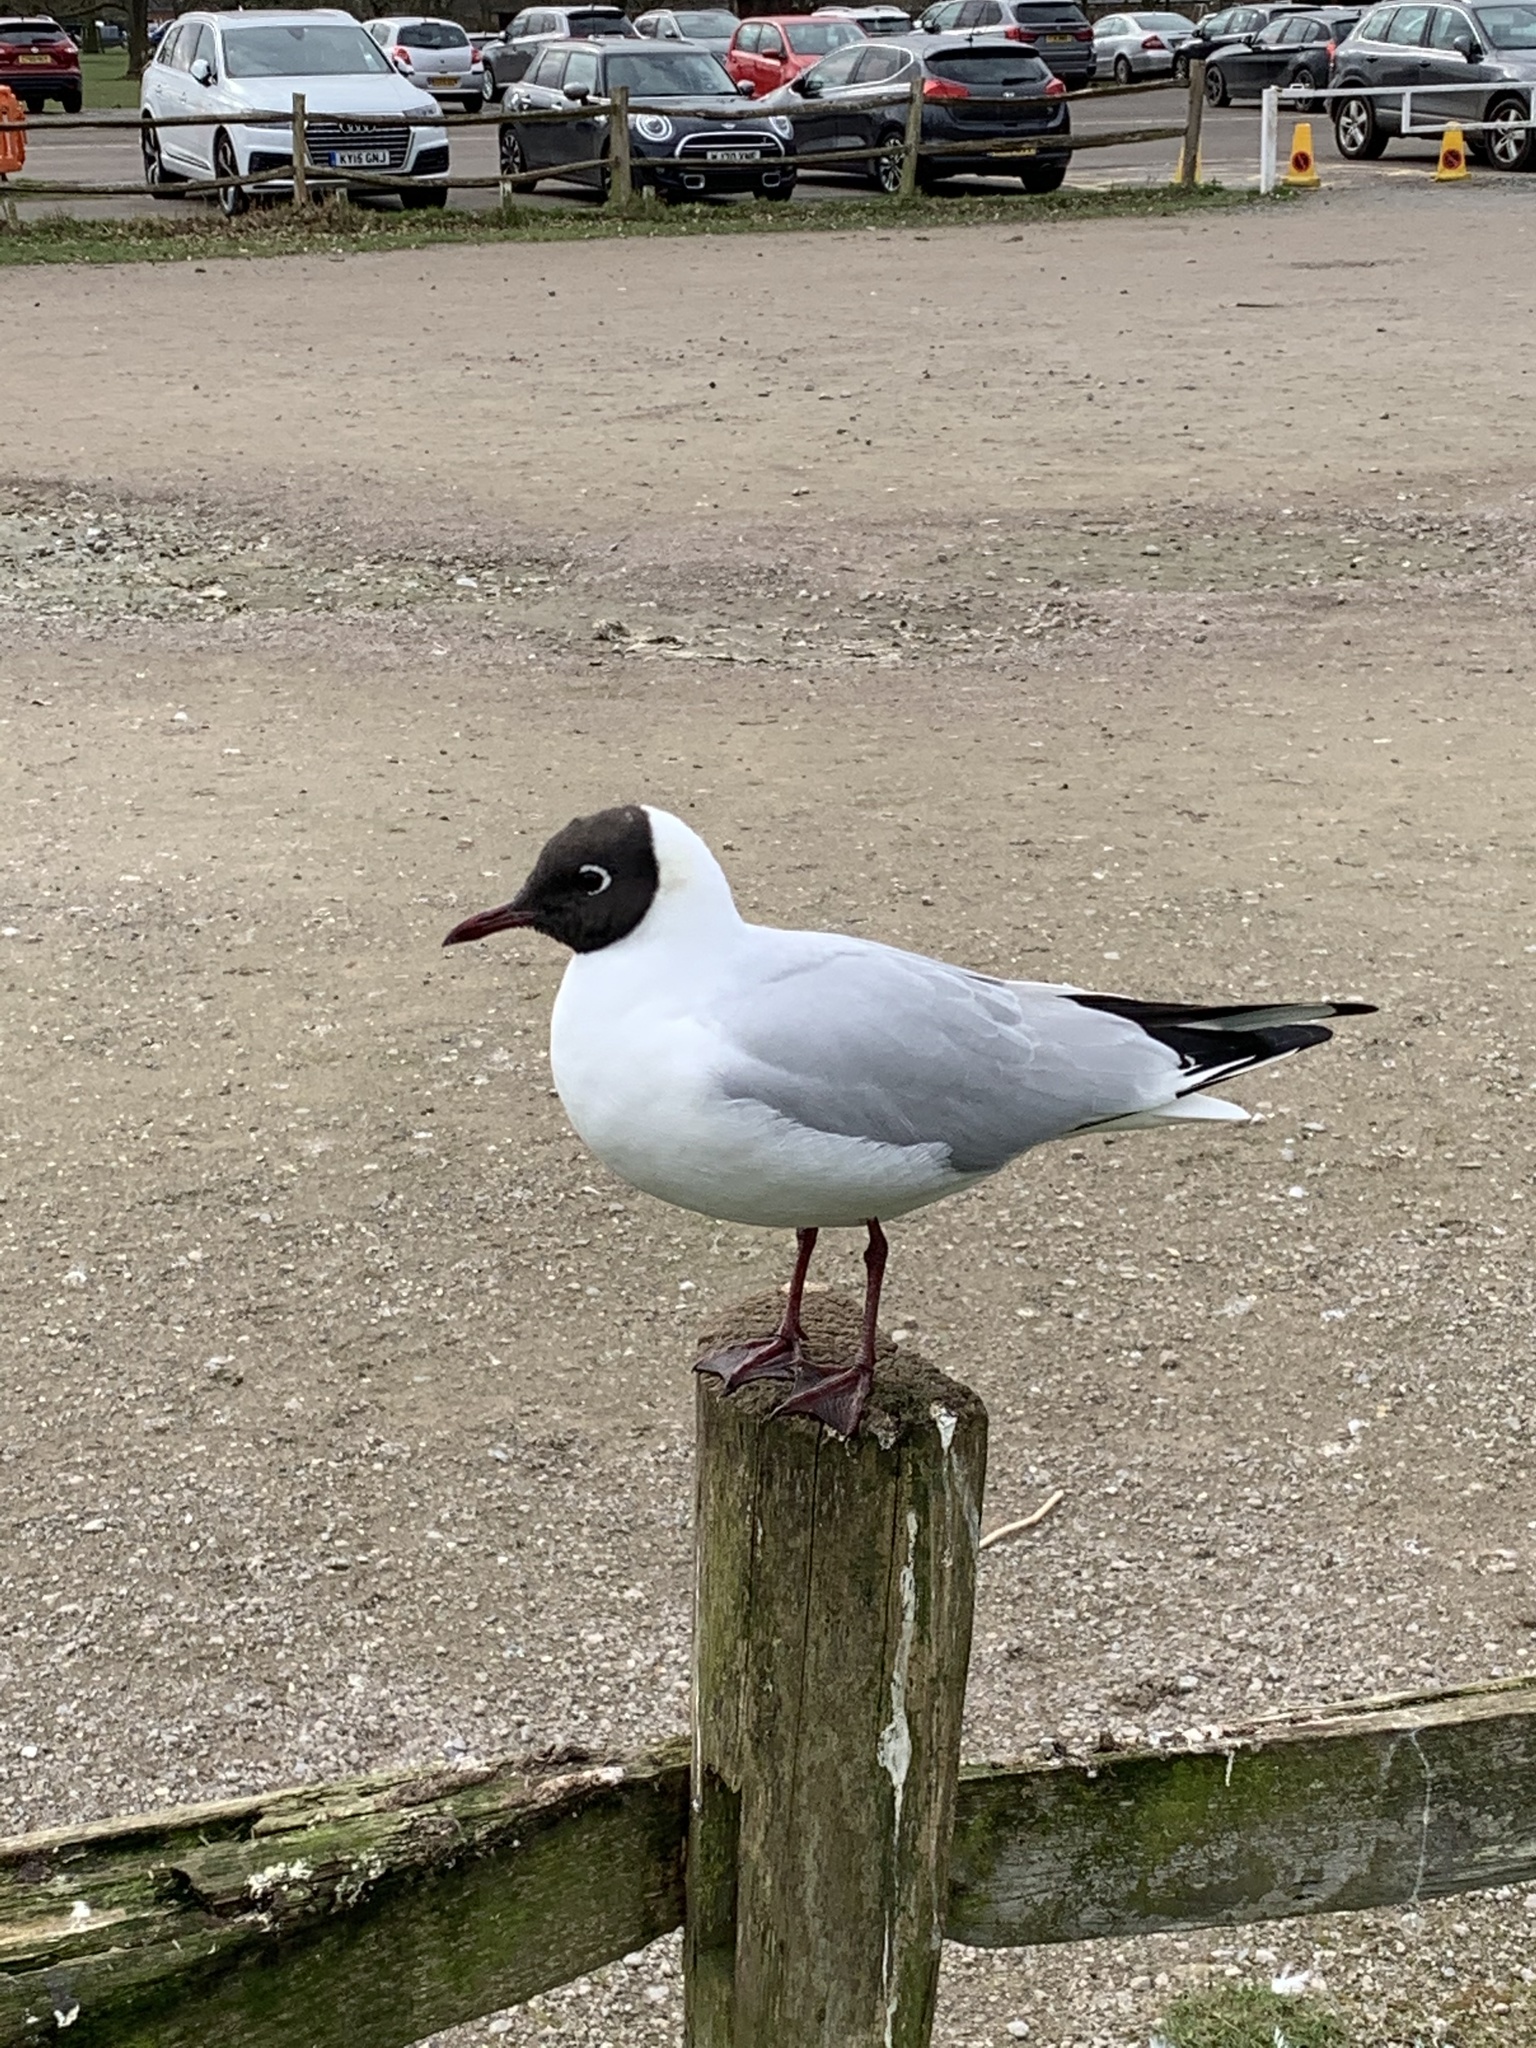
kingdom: Animalia
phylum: Chordata
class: Aves
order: Charadriiformes
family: Laridae
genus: Chroicocephalus
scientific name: Chroicocephalus ridibundus
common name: Black-headed gull
